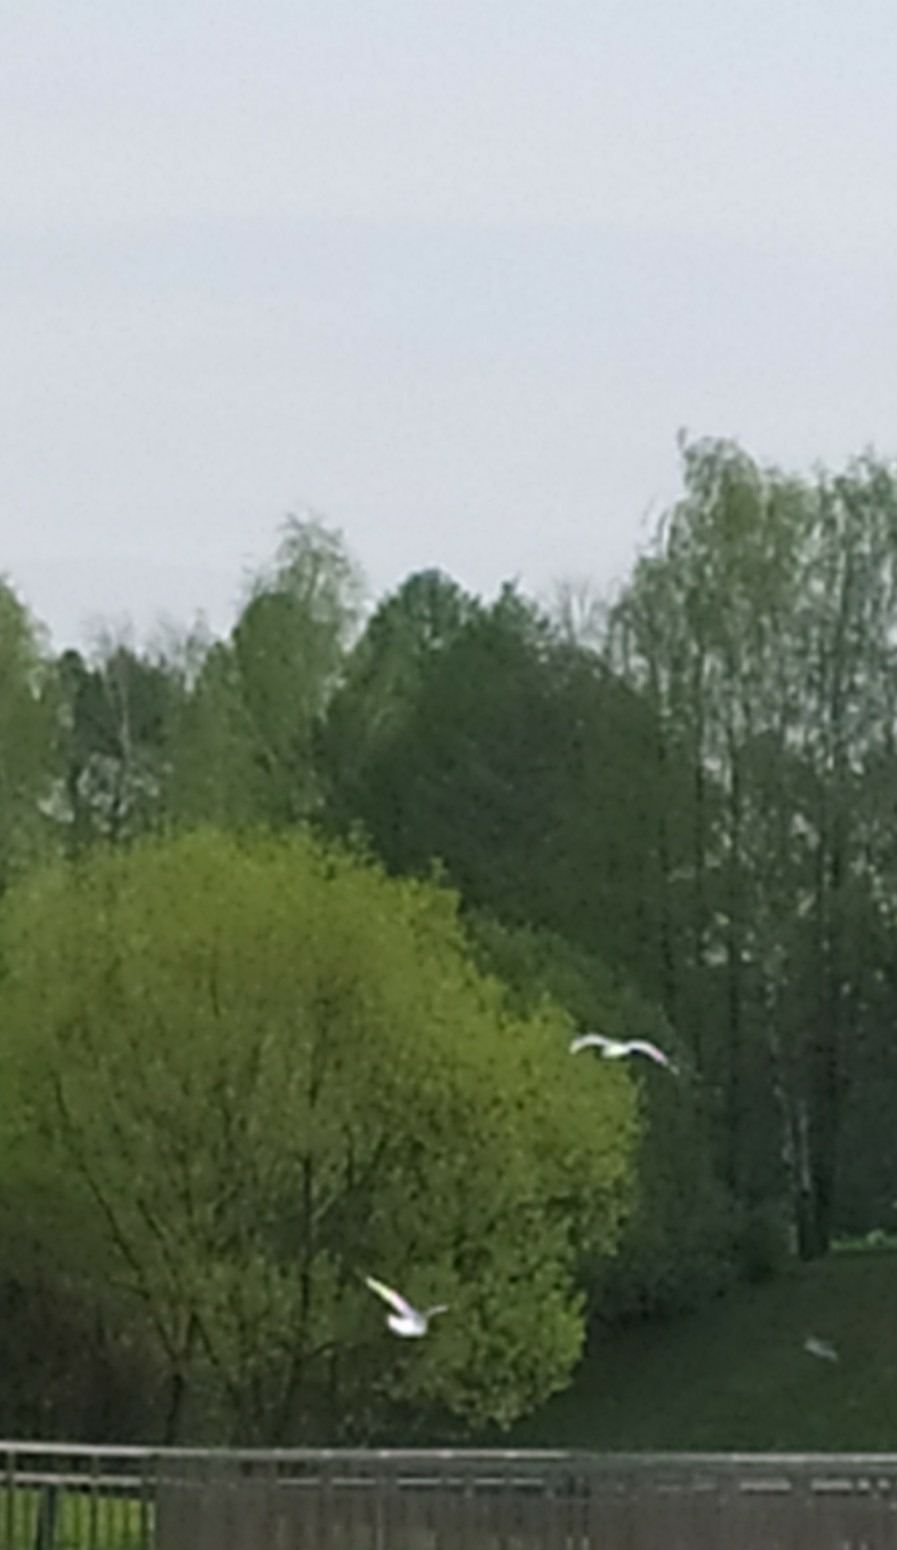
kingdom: Animalia
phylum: Chordata
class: Aves
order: Charadriiformes
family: Laridae
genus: Chroicocephalus
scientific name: Chroicocephalus ridibundus
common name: Black-headed gull
